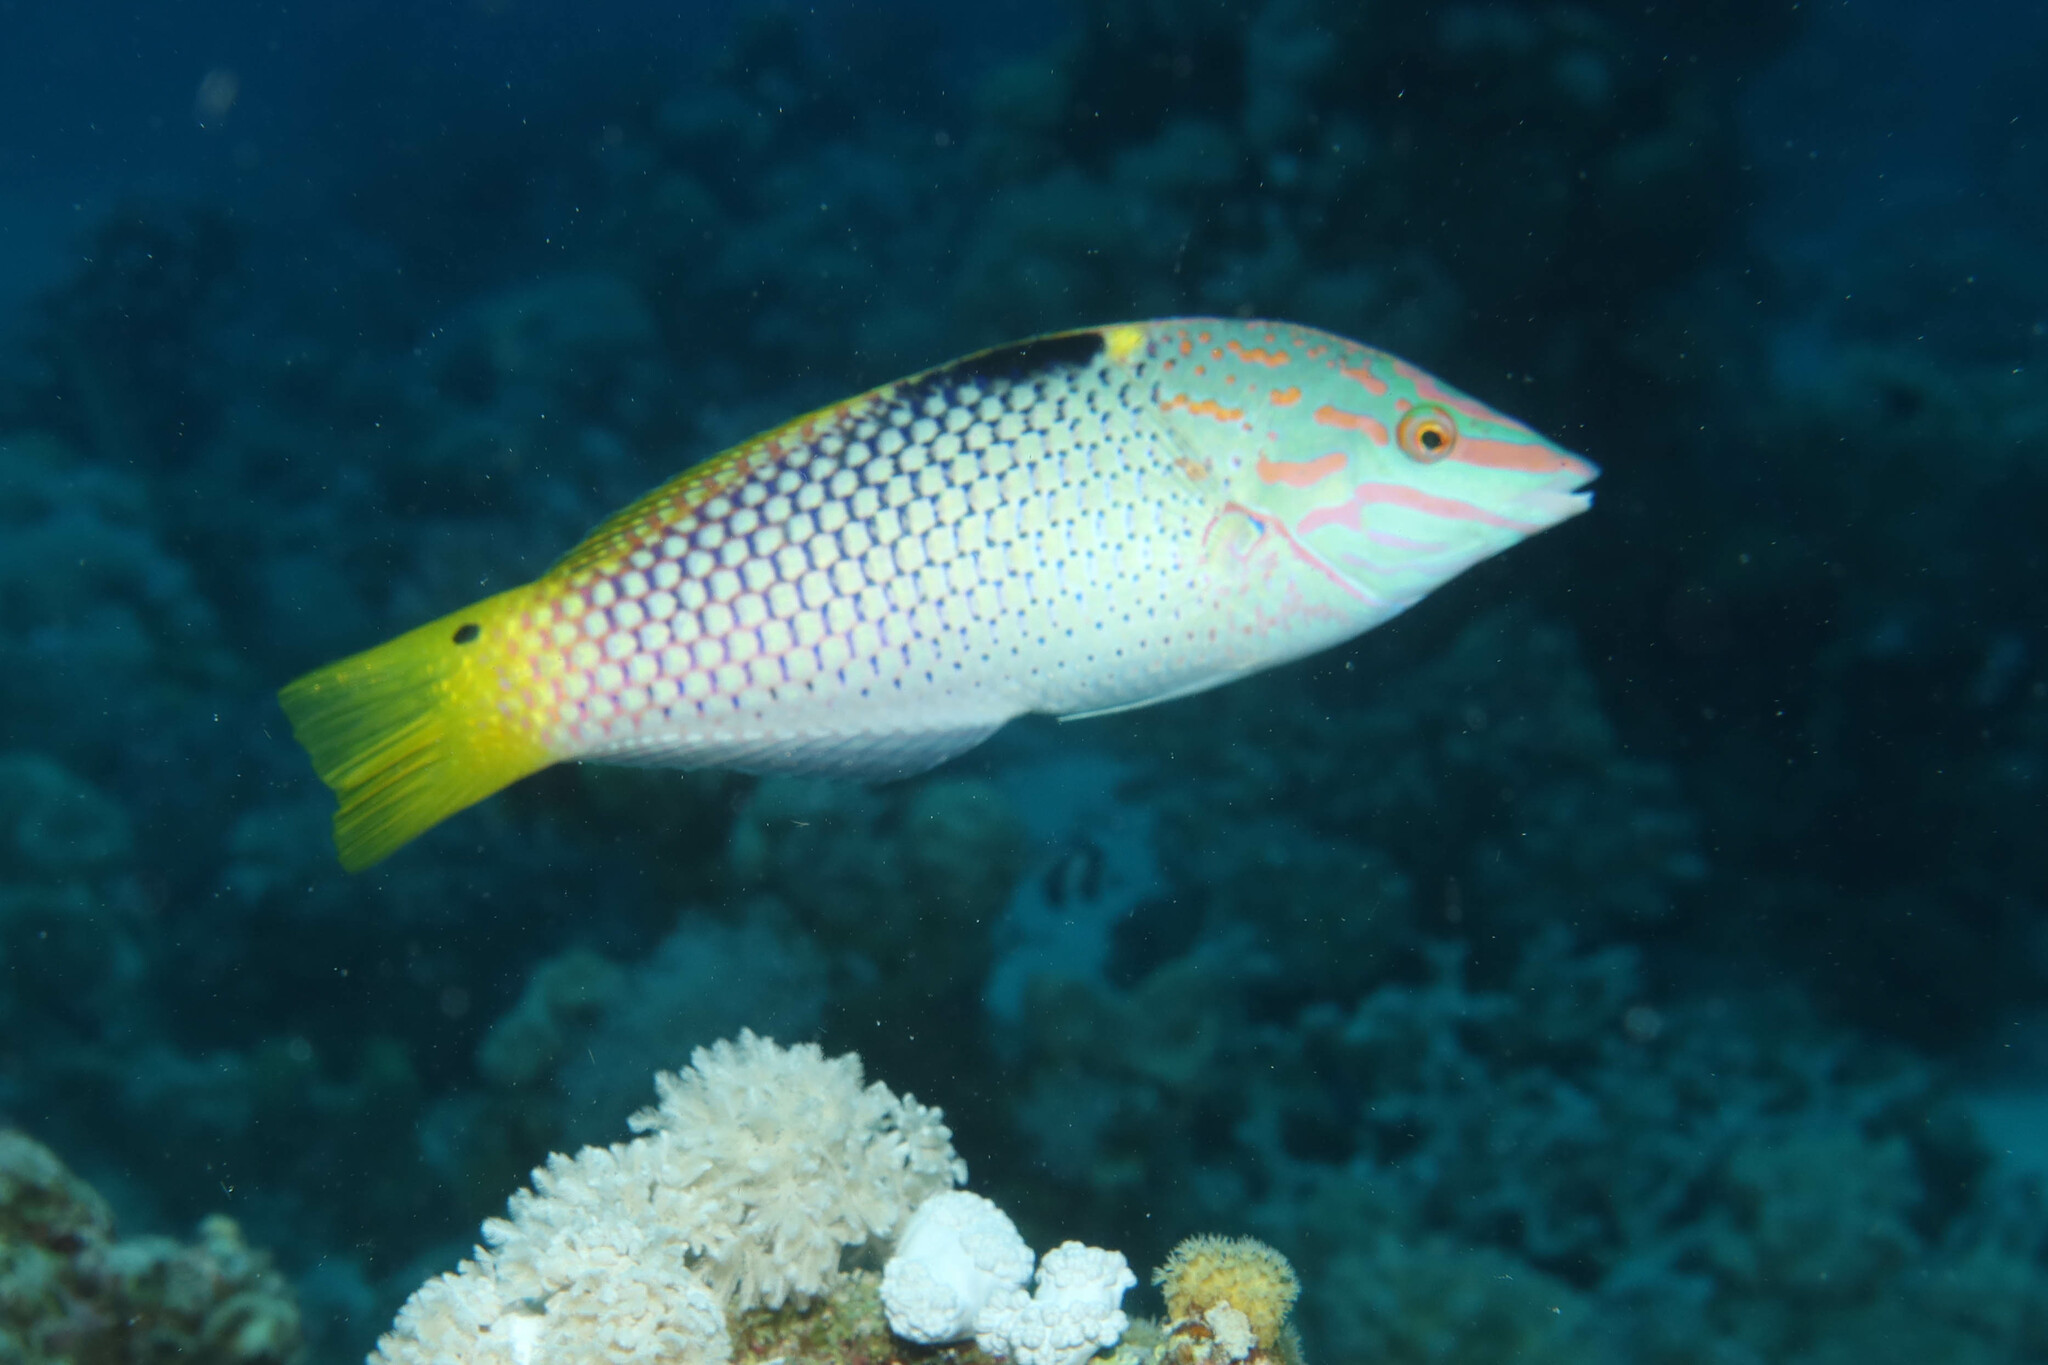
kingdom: Animalia
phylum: Chordata
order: Perciformes
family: Labridae
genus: Halichoeres
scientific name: Halichoeres hortulanus
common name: Checkerboard wrasse
